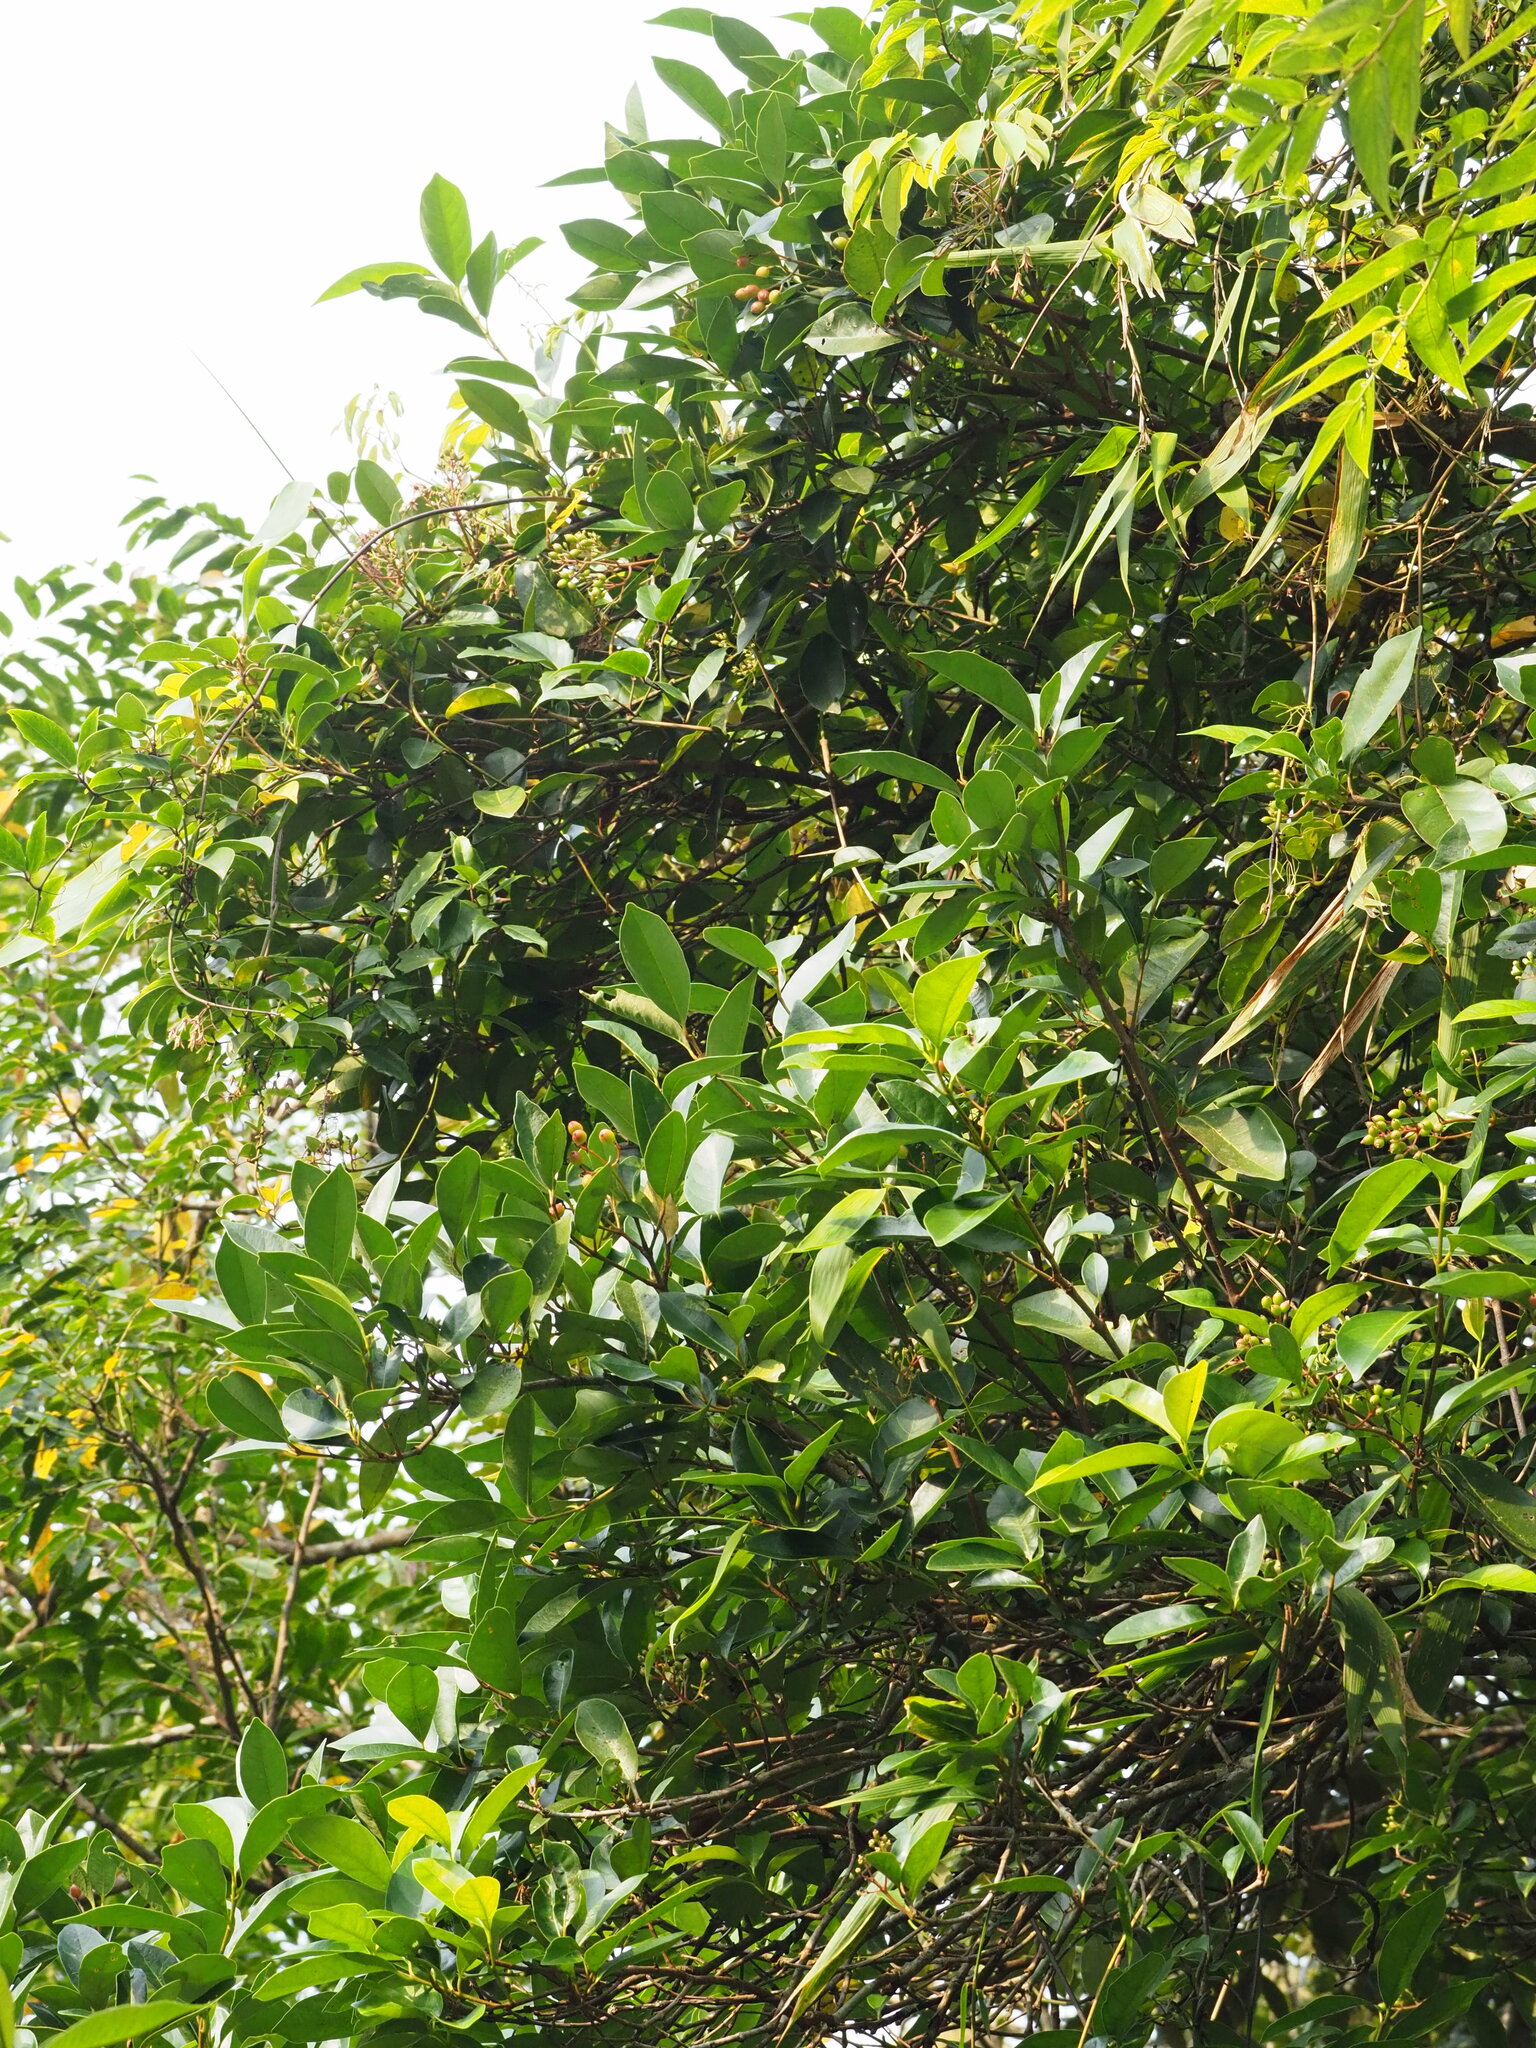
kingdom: Plantae
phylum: Tracheophyta
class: Magnoliopsida
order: Dipsacales
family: Viburnaceae
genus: Viburnum
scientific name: Viburnum odoratissimum
